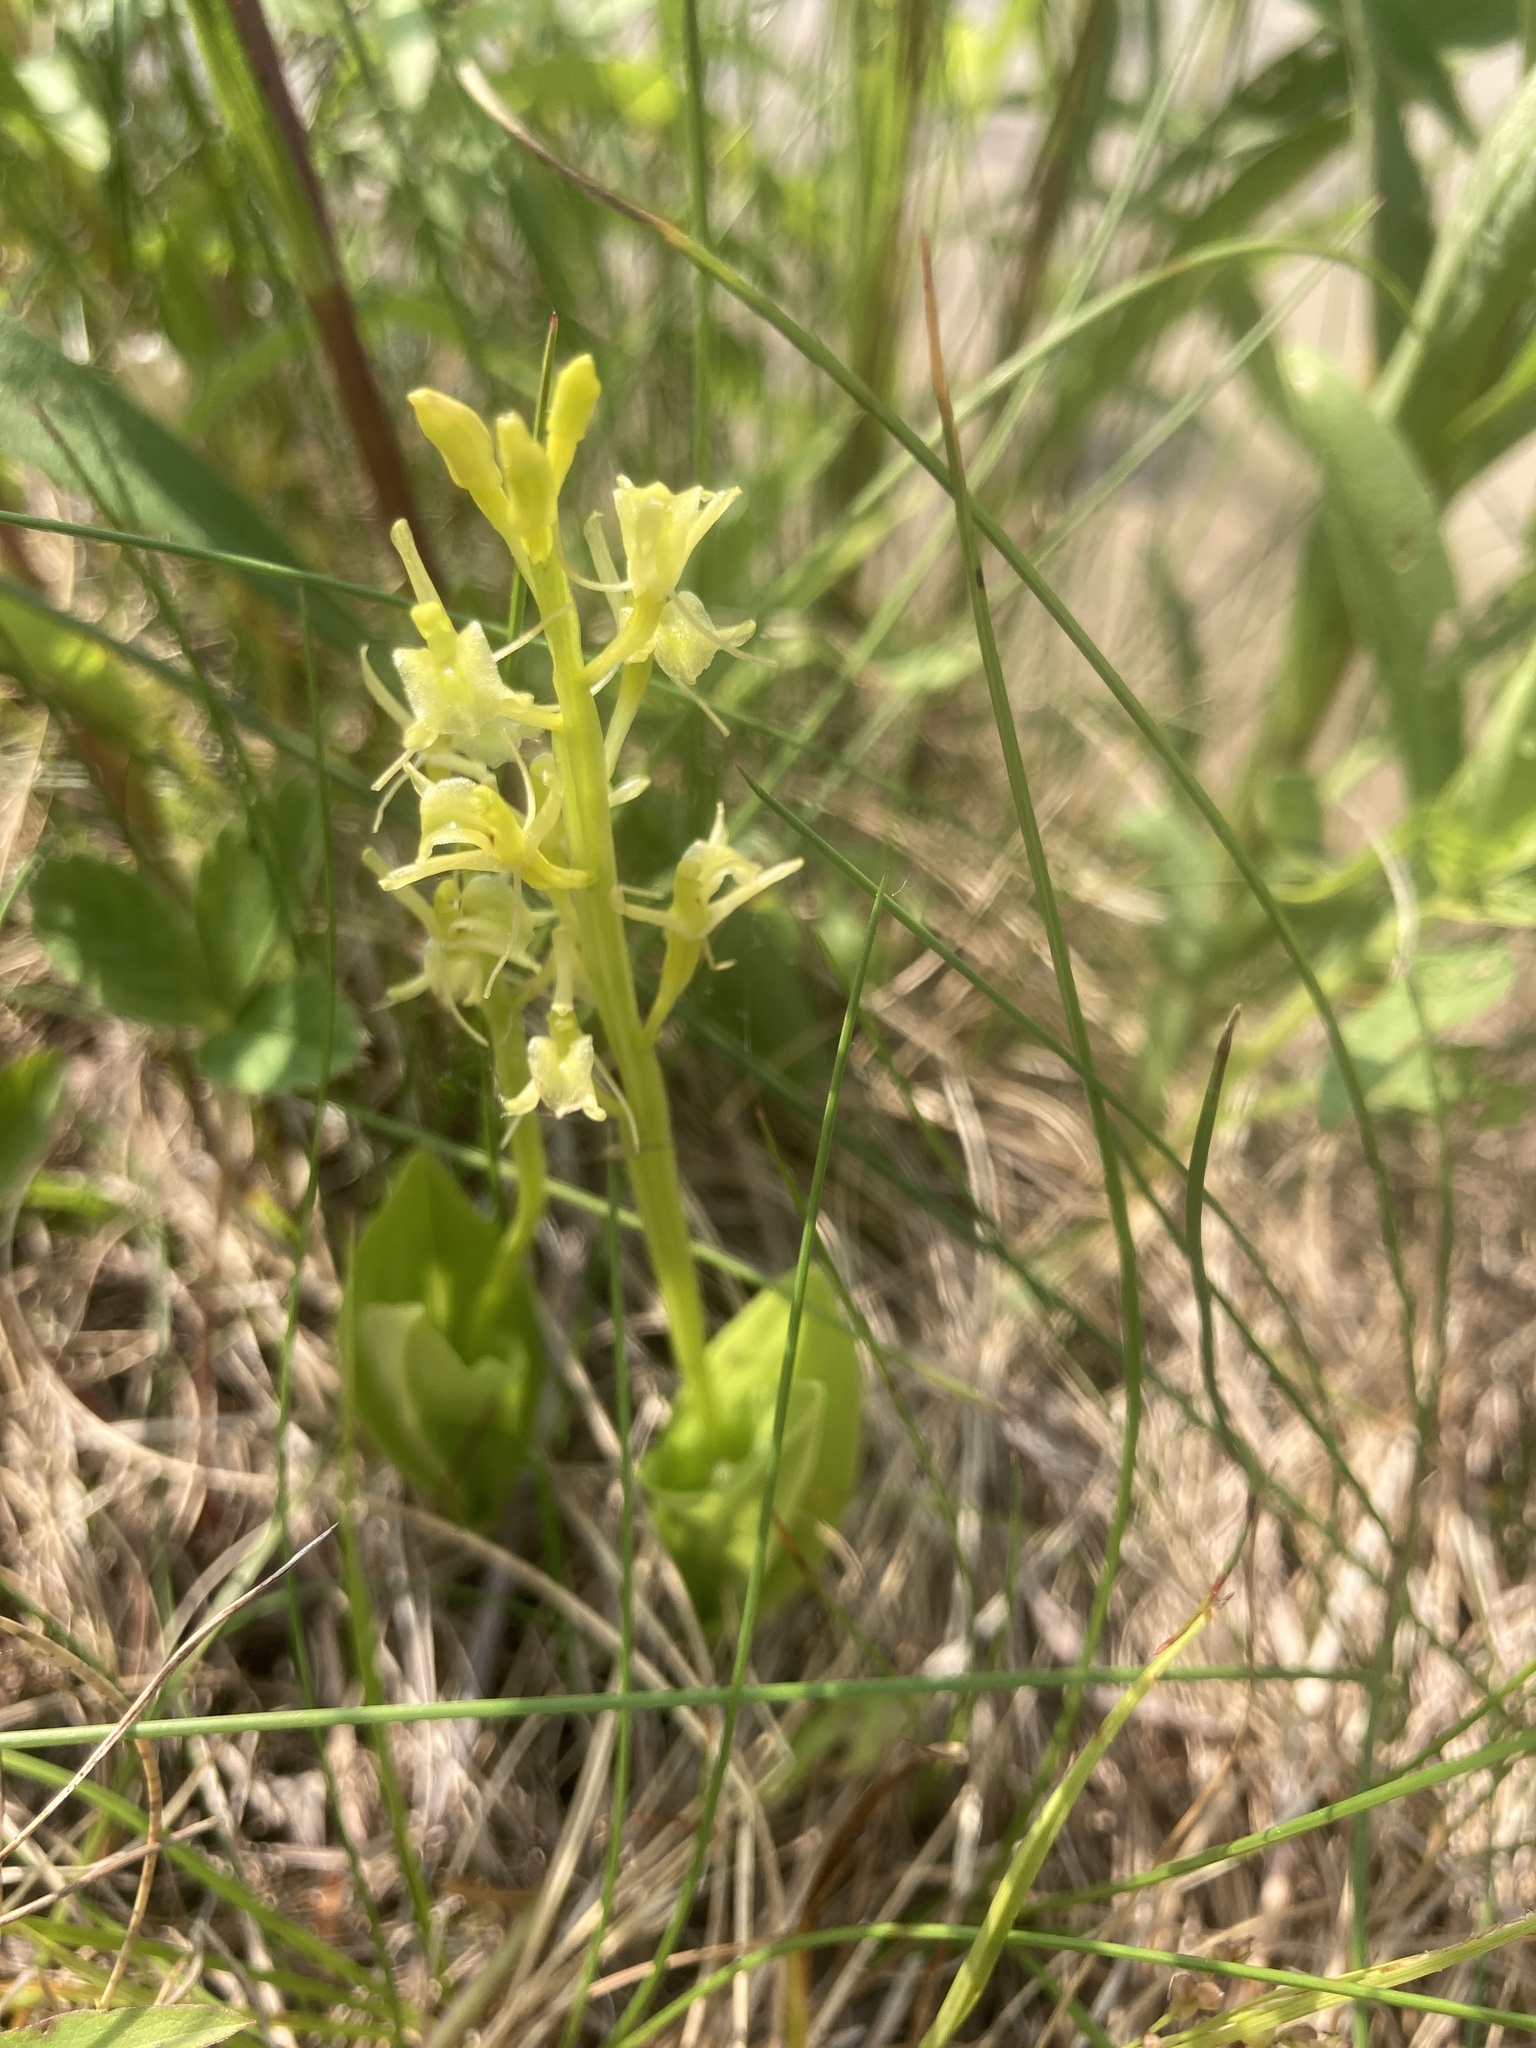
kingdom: Animalia
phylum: Arthropoda
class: Insecta
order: Coleoptera
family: Curculionidae
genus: Liparis
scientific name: Liparis loeselii
